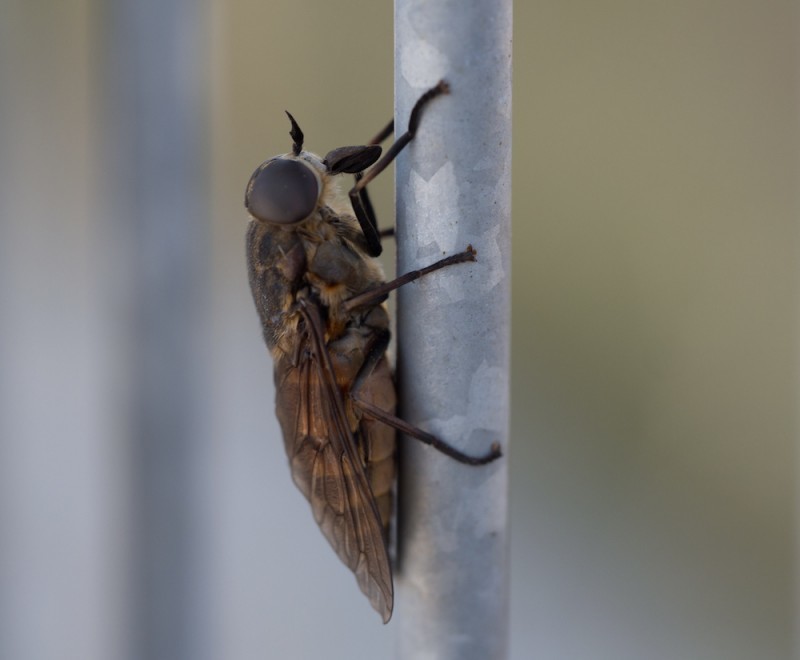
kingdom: Animalia
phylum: Arthropoda
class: Insecta
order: Diptera
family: Tabanidae
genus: Tabanus
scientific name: Tabanus sudeticus
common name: Dark giant horsefly
